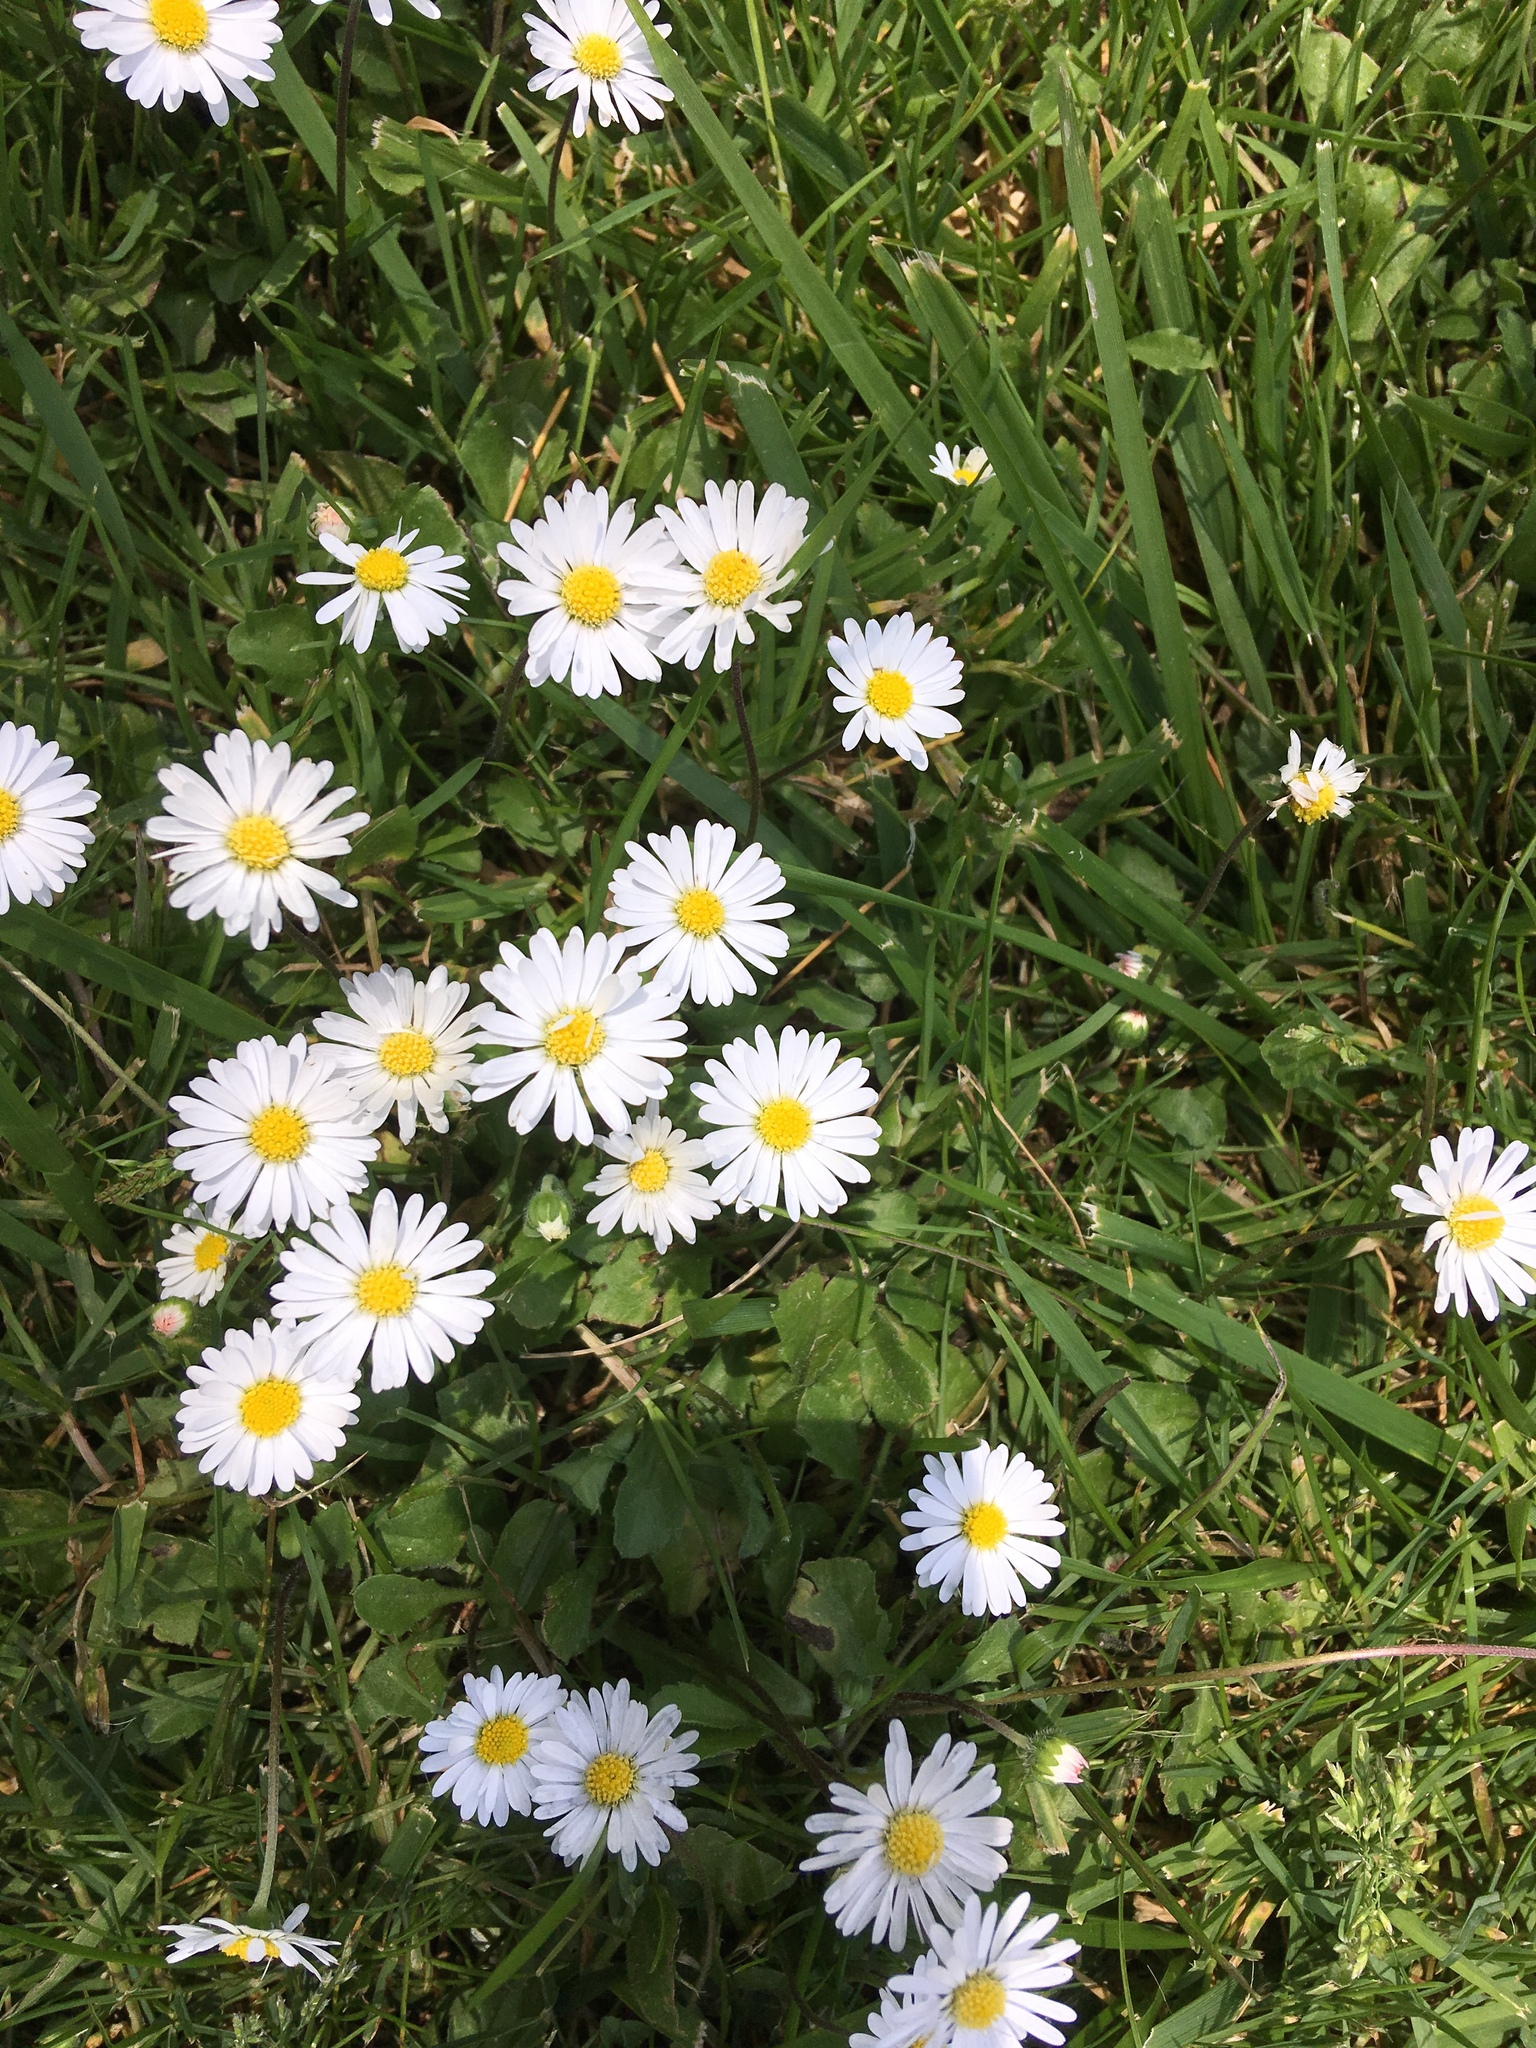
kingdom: Plantae
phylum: Tracheophyta
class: Magnoliopsida
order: Asterales
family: Asteraceae
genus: Bellis
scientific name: Bellis perennis
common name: Lawndaisy
